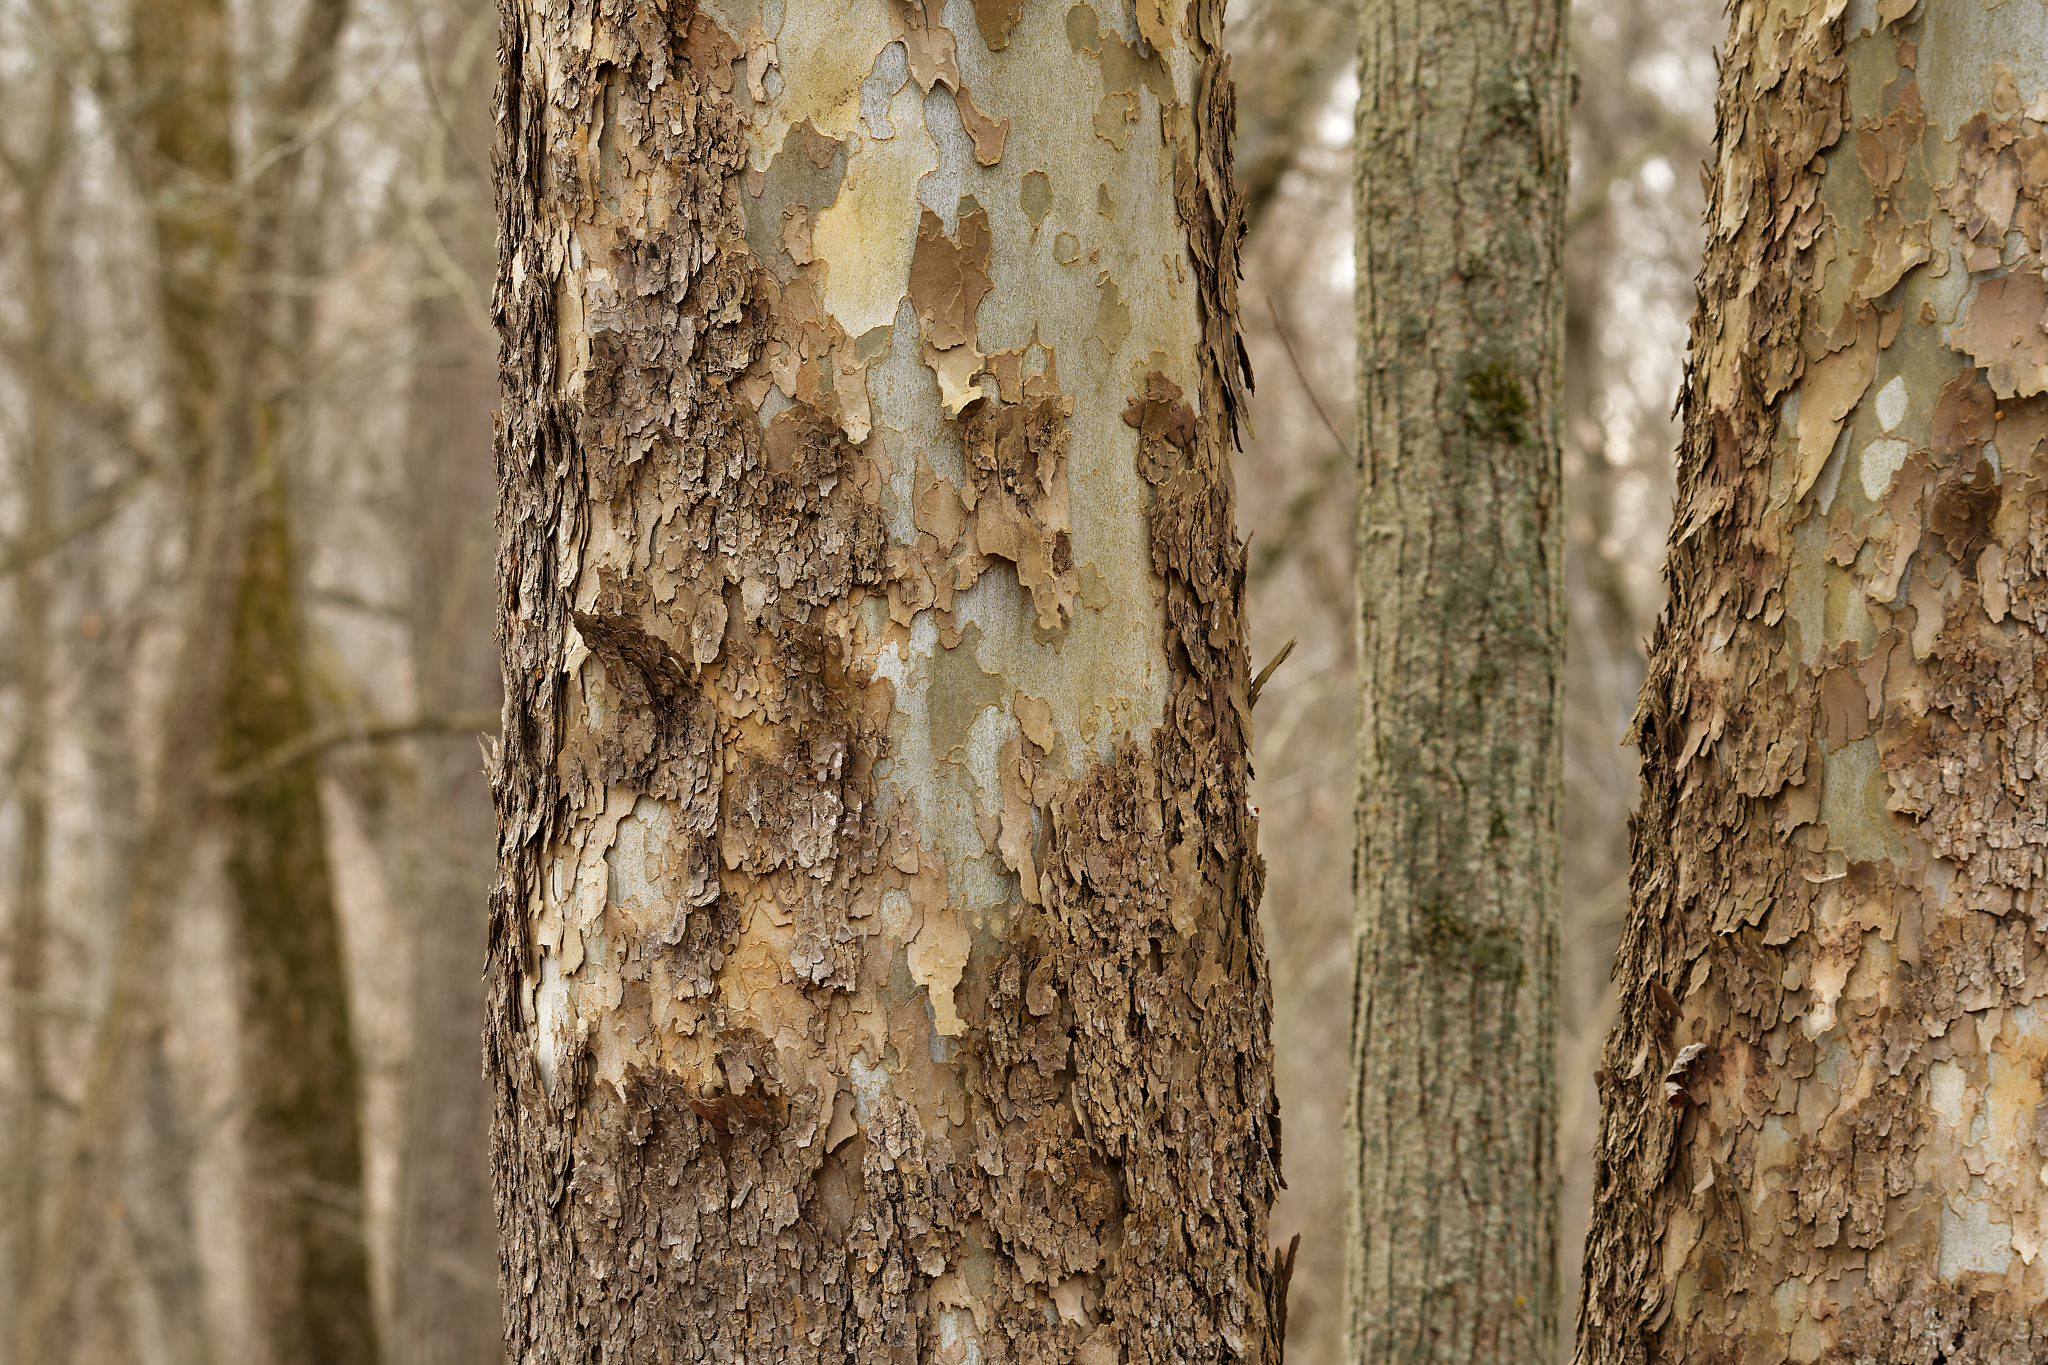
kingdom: Plantae
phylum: Tracheophyta
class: Magnoliopsida
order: Proteales
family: Platanaceae
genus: Platanus
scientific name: Platanus occidentalis
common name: American sycamore
